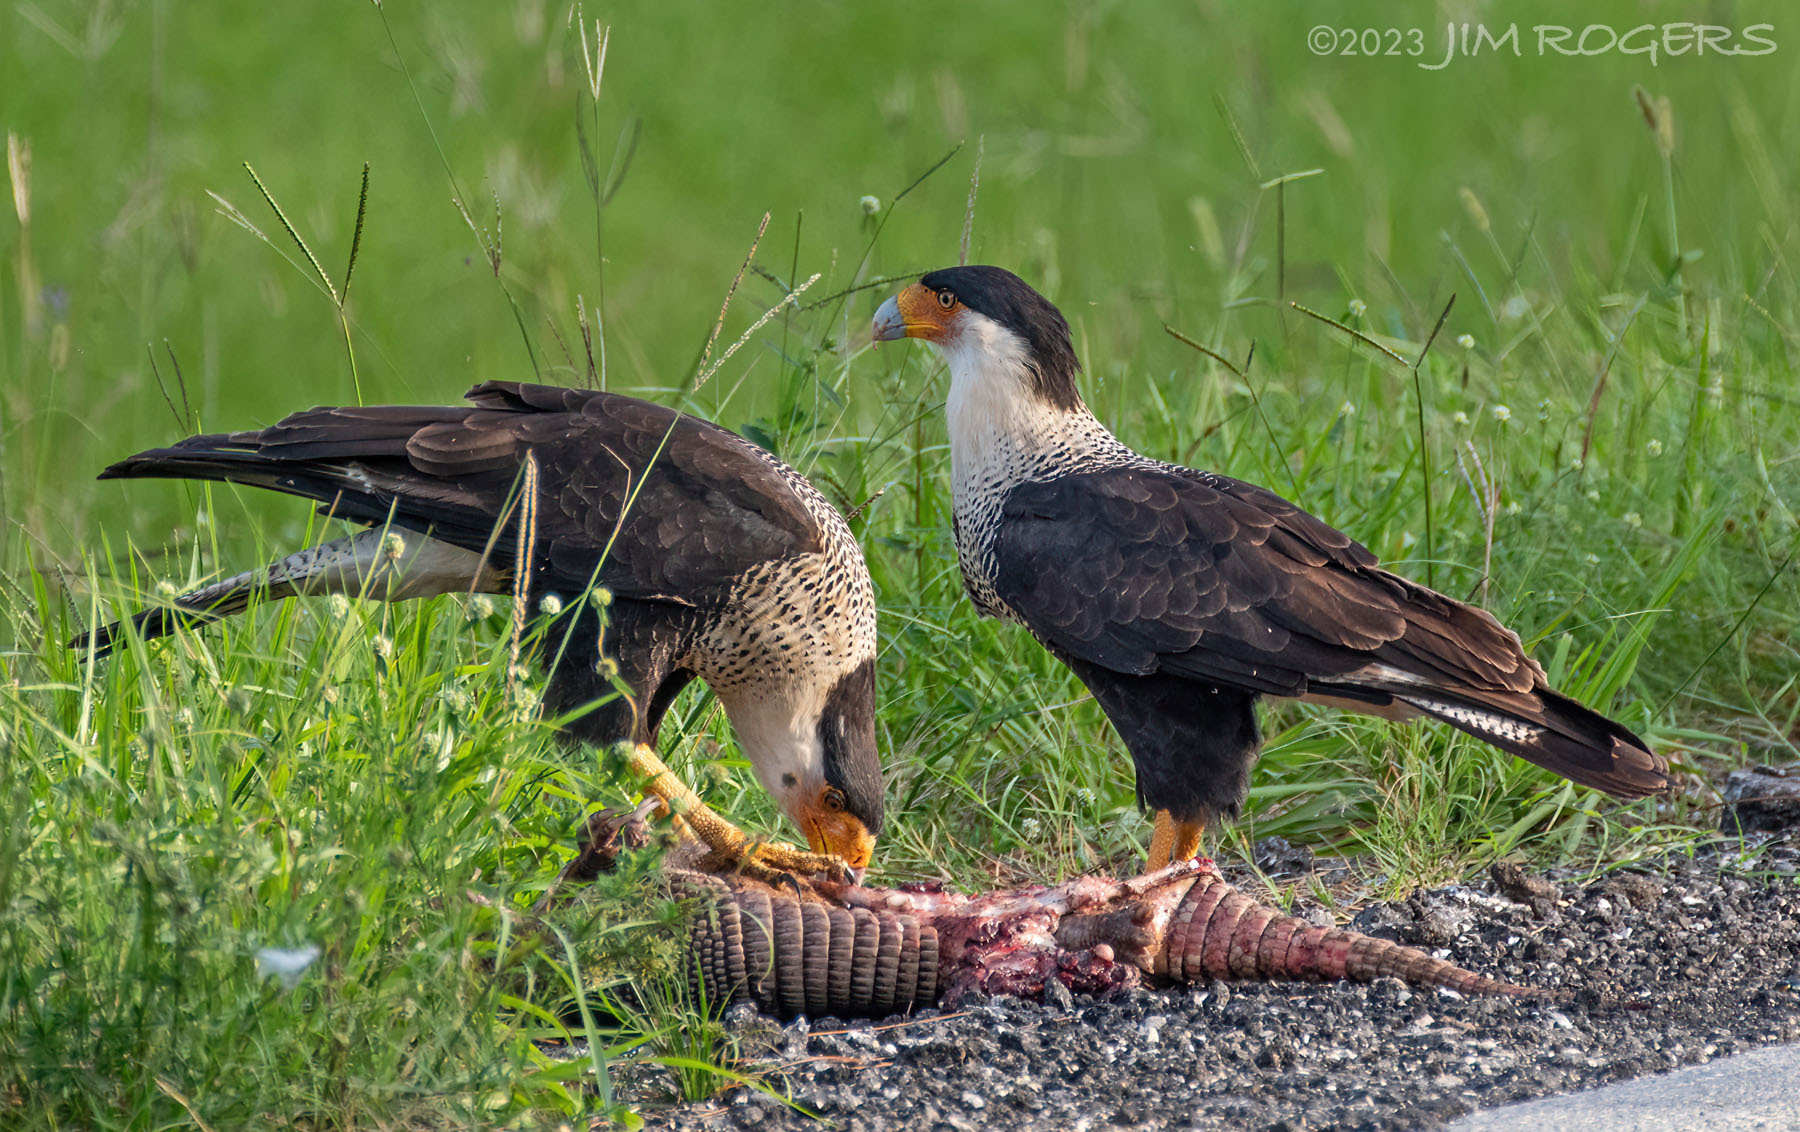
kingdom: Animalia
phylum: Chordata
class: Aves
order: Falconiformes
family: Falconidae
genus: Caracara
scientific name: Caracara plancus
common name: Southern caracara
